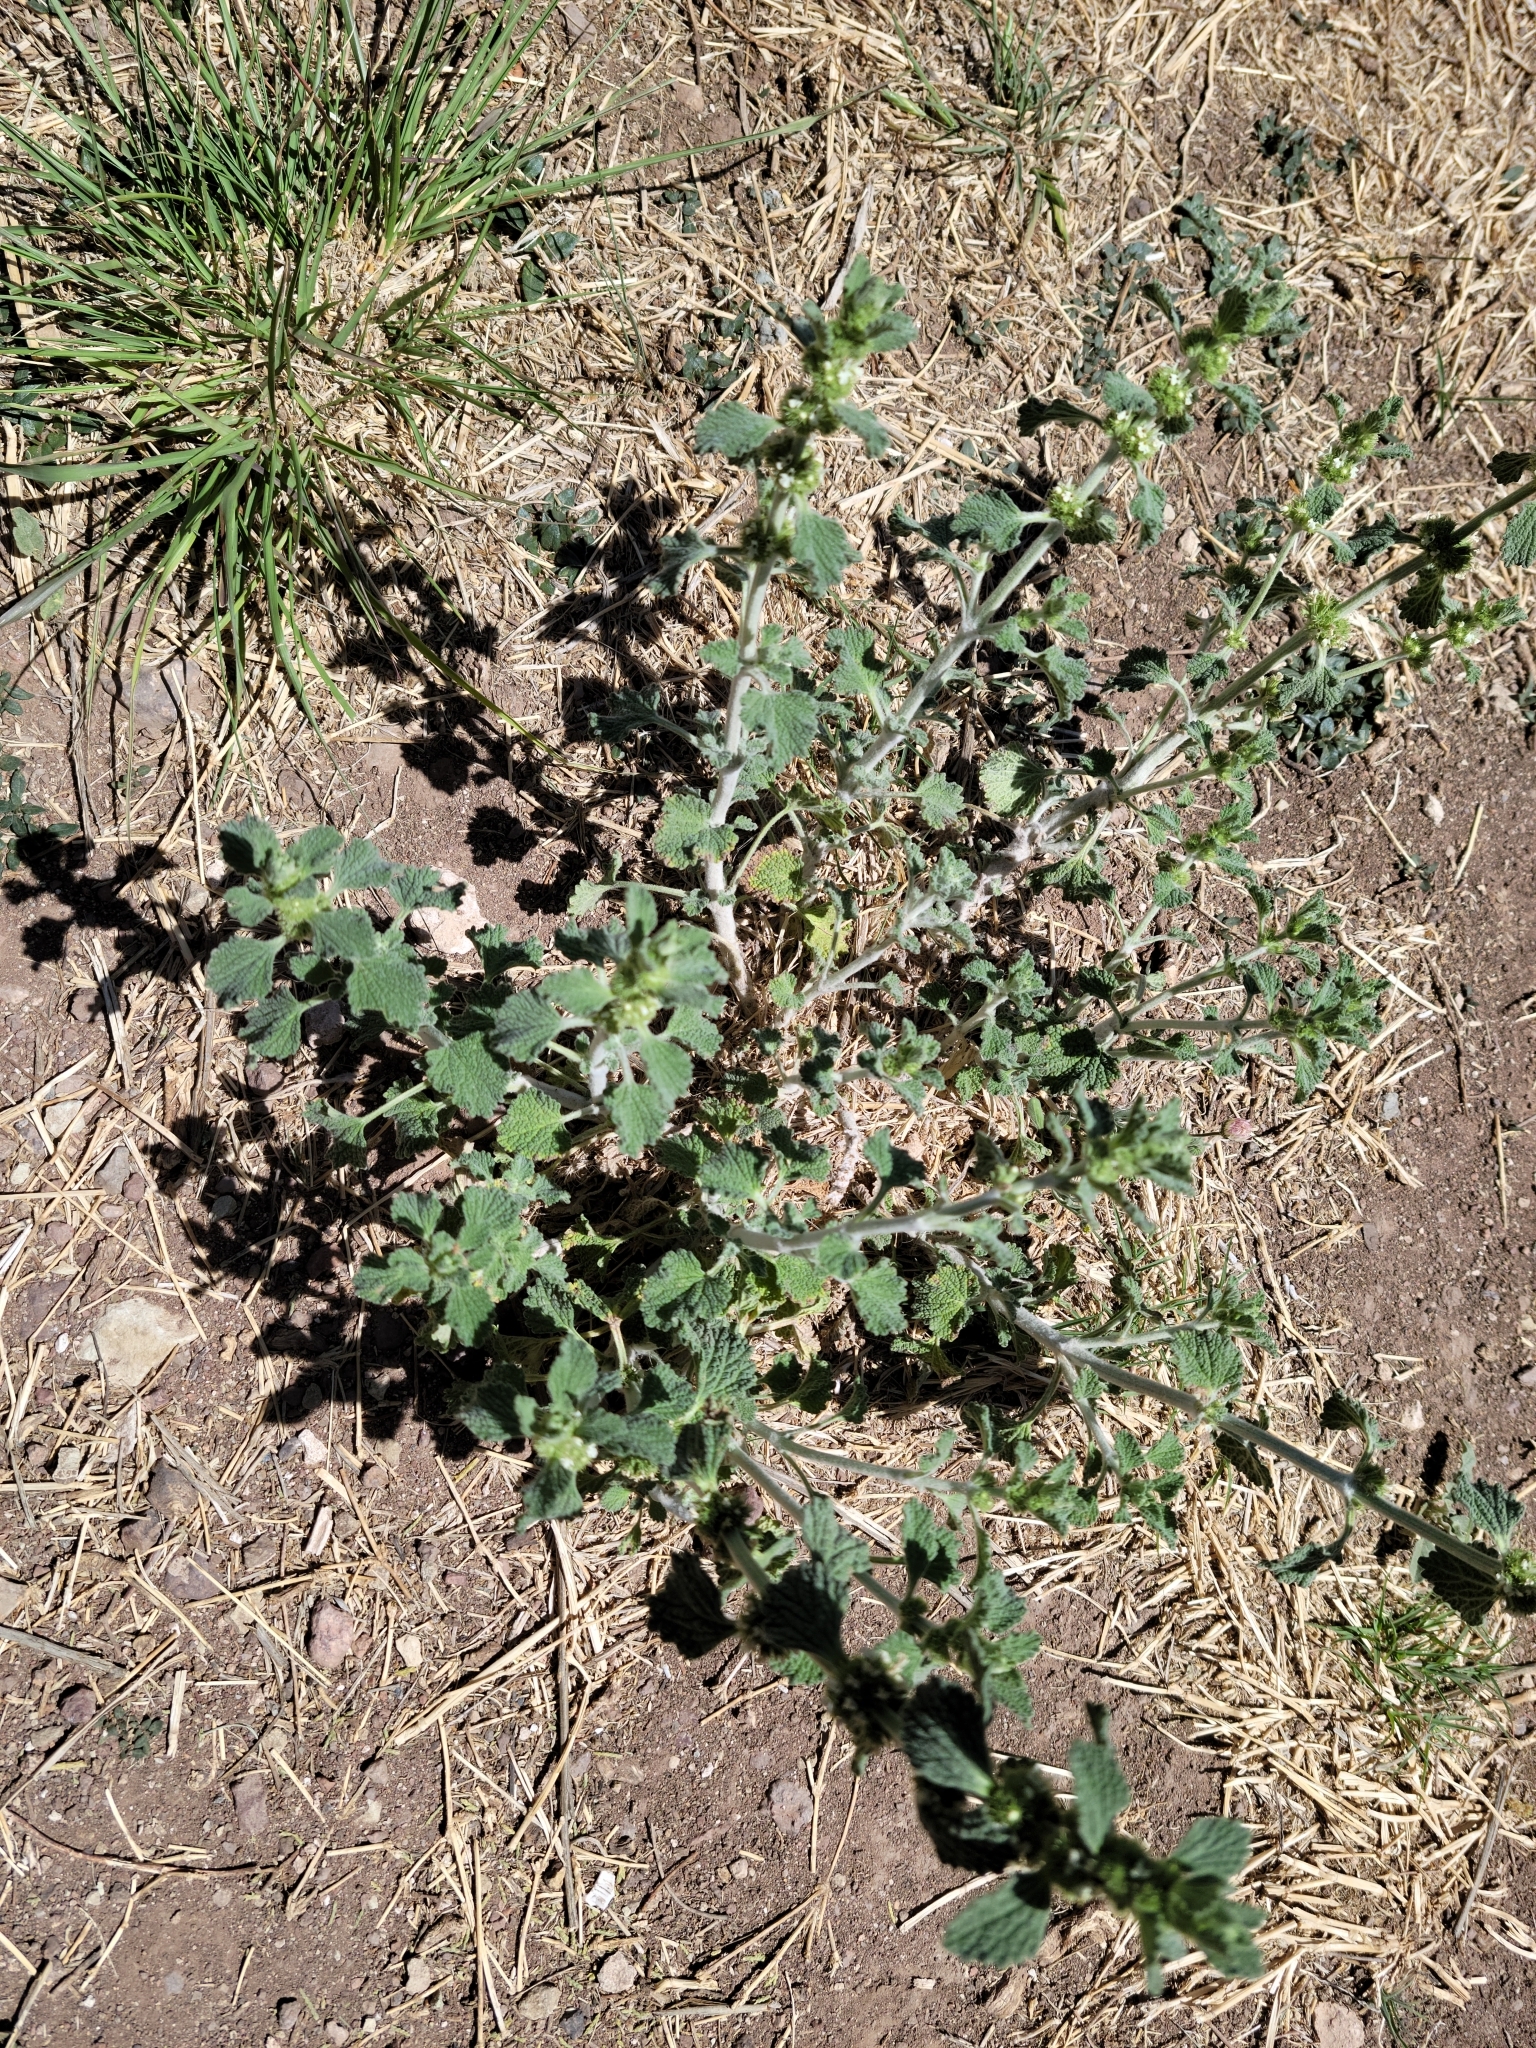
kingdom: Plantae
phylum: Tracheophyta
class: Magnoliopsida
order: Lamiales
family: Lamiaceae
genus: Marrubium
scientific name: Marrubium vulgare
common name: Horehound
